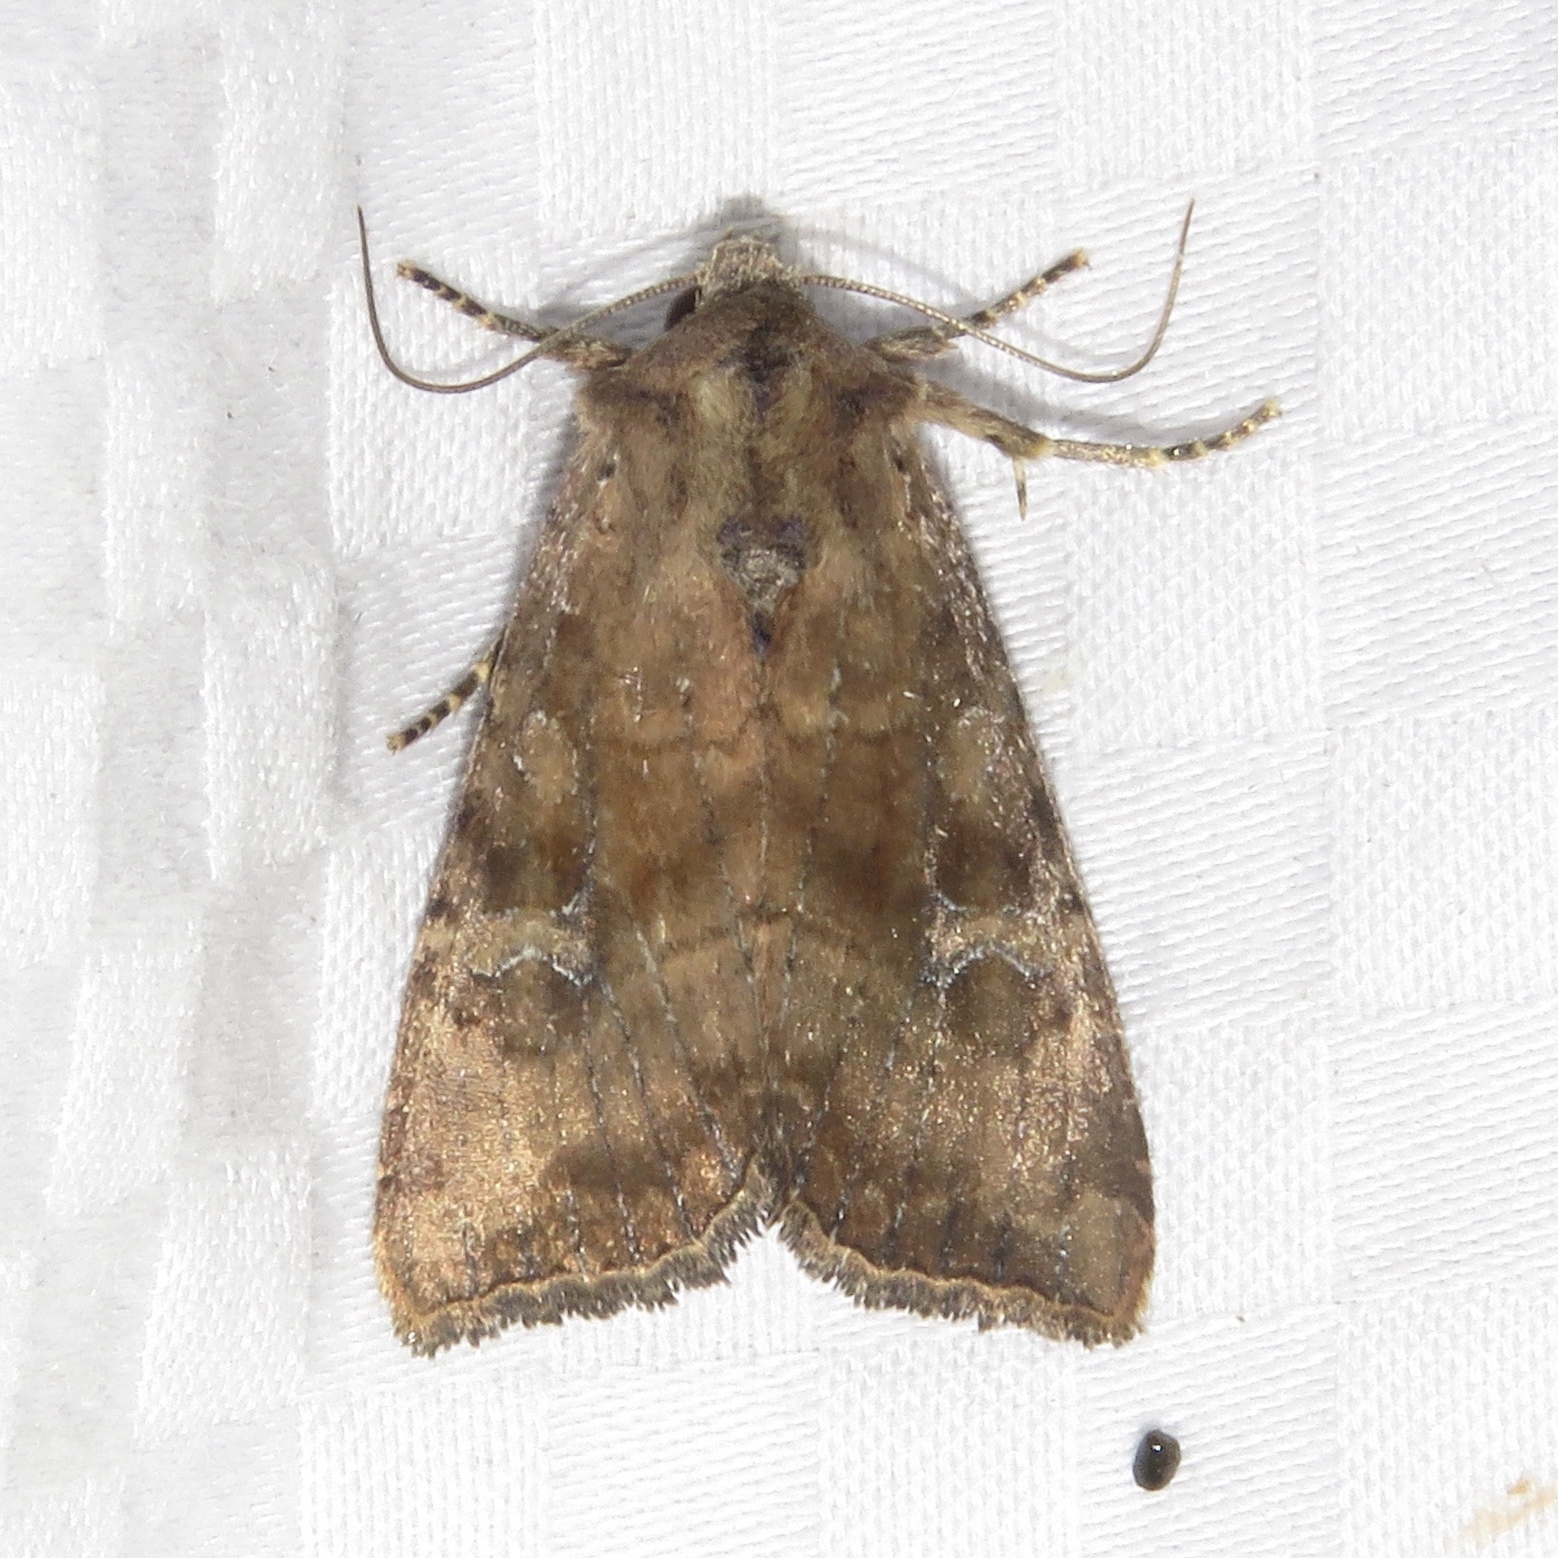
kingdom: Animalia
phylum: Arthropoda
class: Insecta
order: Lepidoptera
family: Noctuidae
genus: Loscopia
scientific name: Loscopia velata
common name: Veiled ear moth
